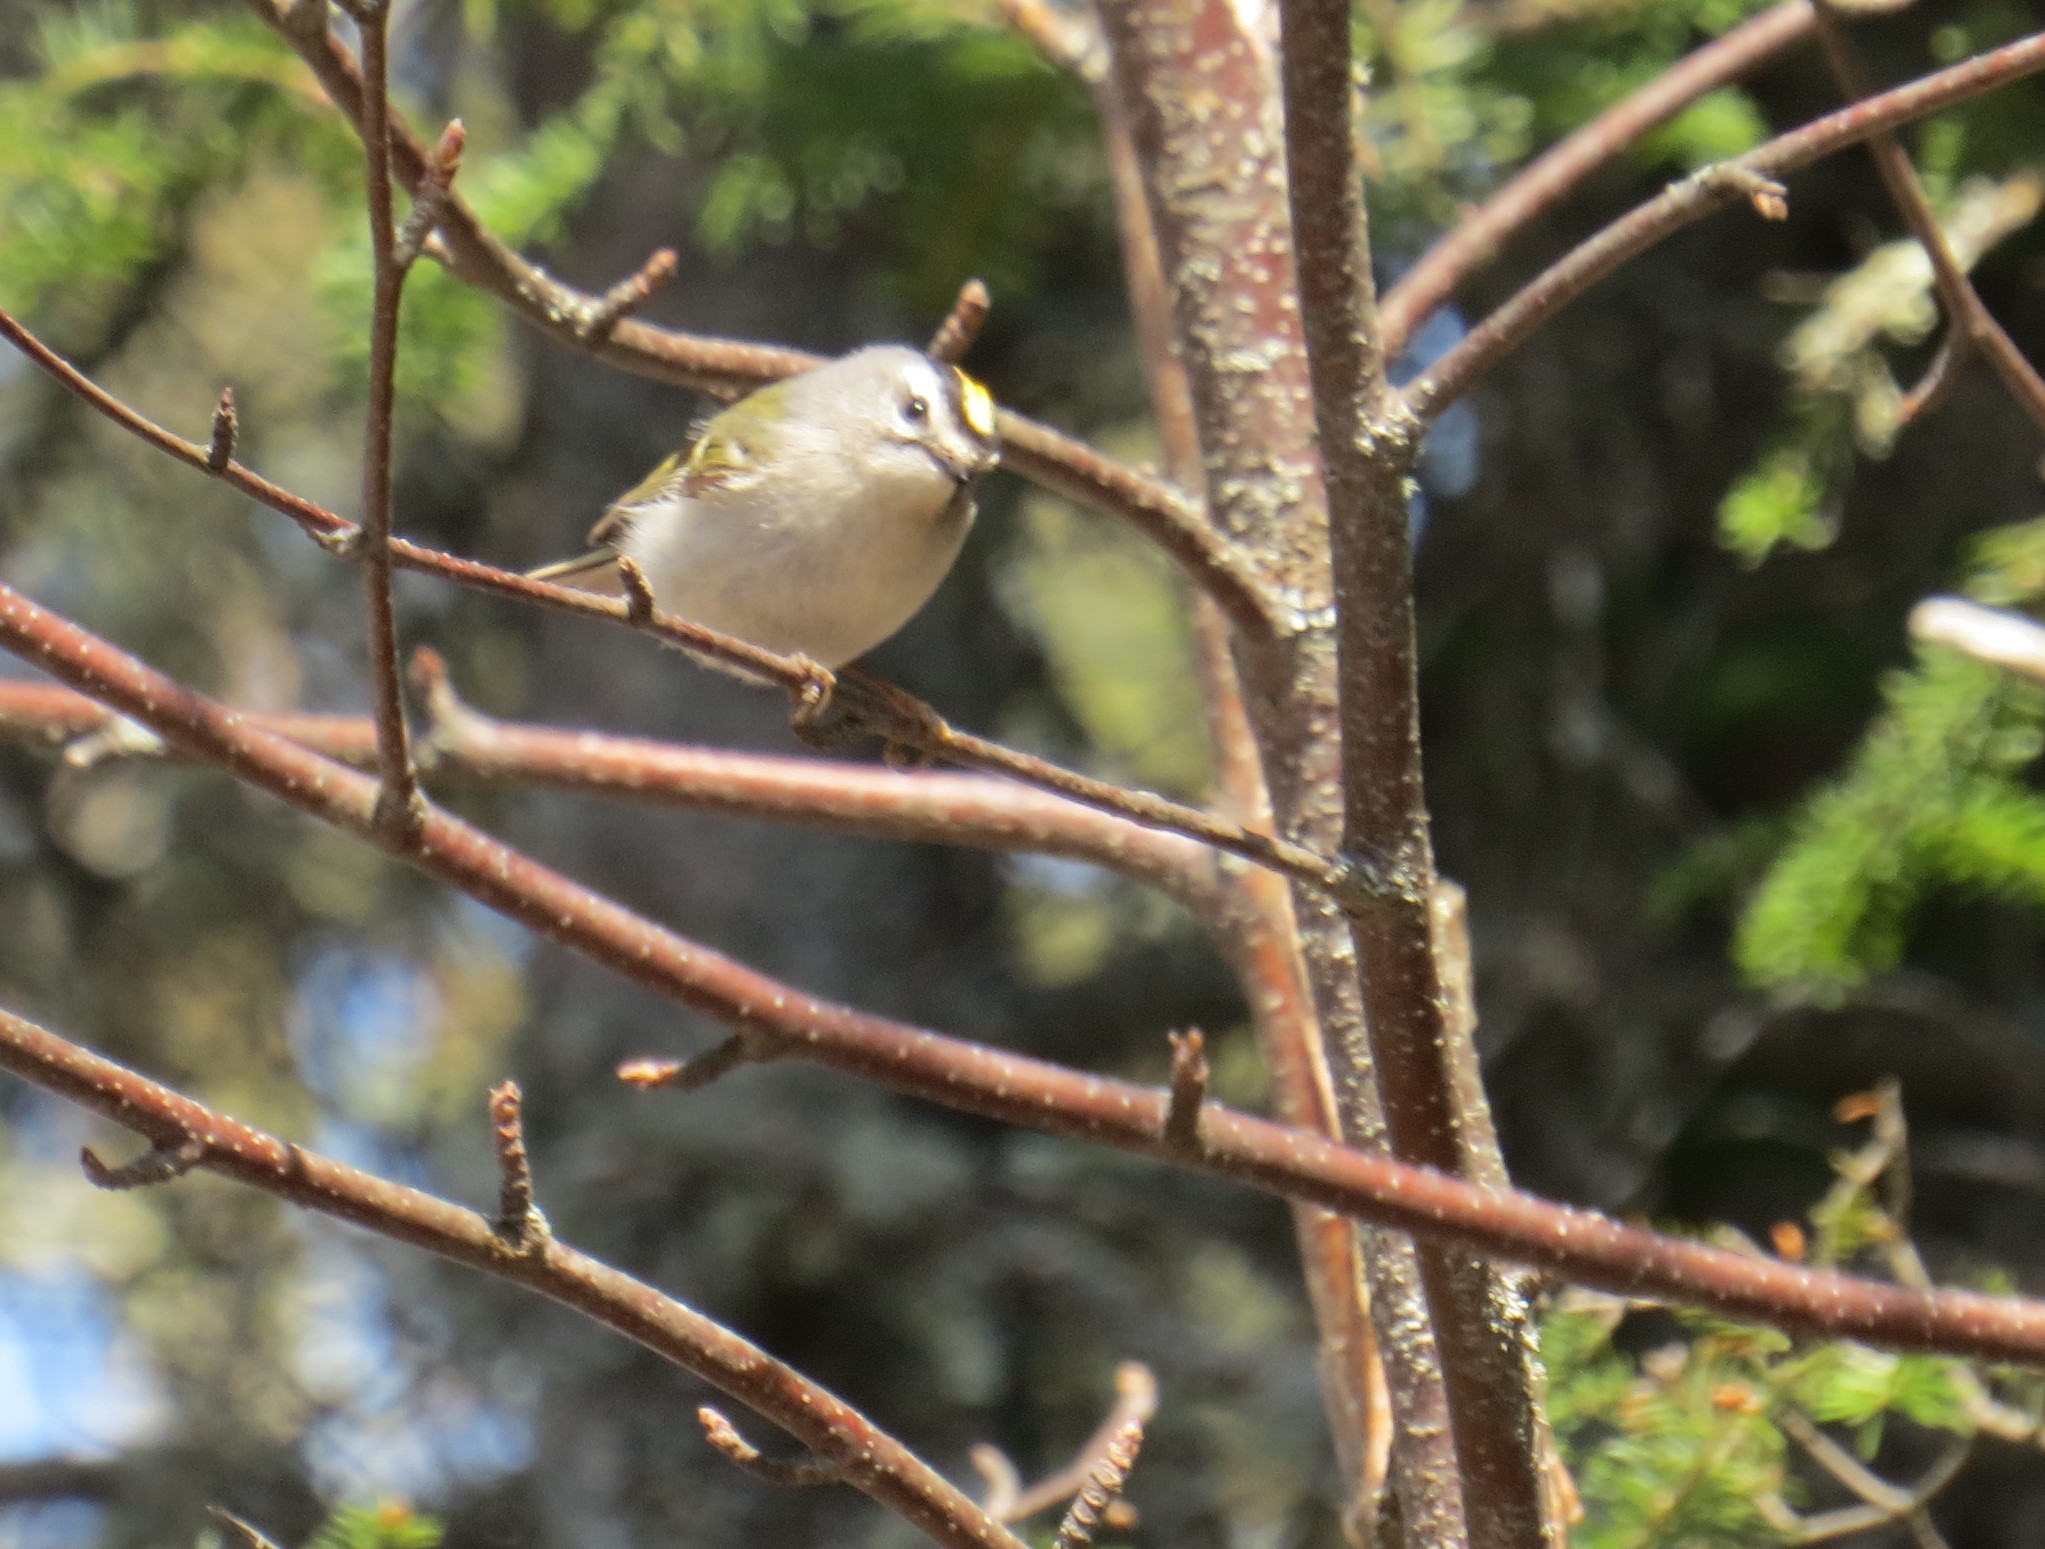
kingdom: Animalia
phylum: Chordata
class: Aves
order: Passeriformes
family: Regulidae
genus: Regulus
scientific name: Regulus satrapa
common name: Golden-crowned kinglet
